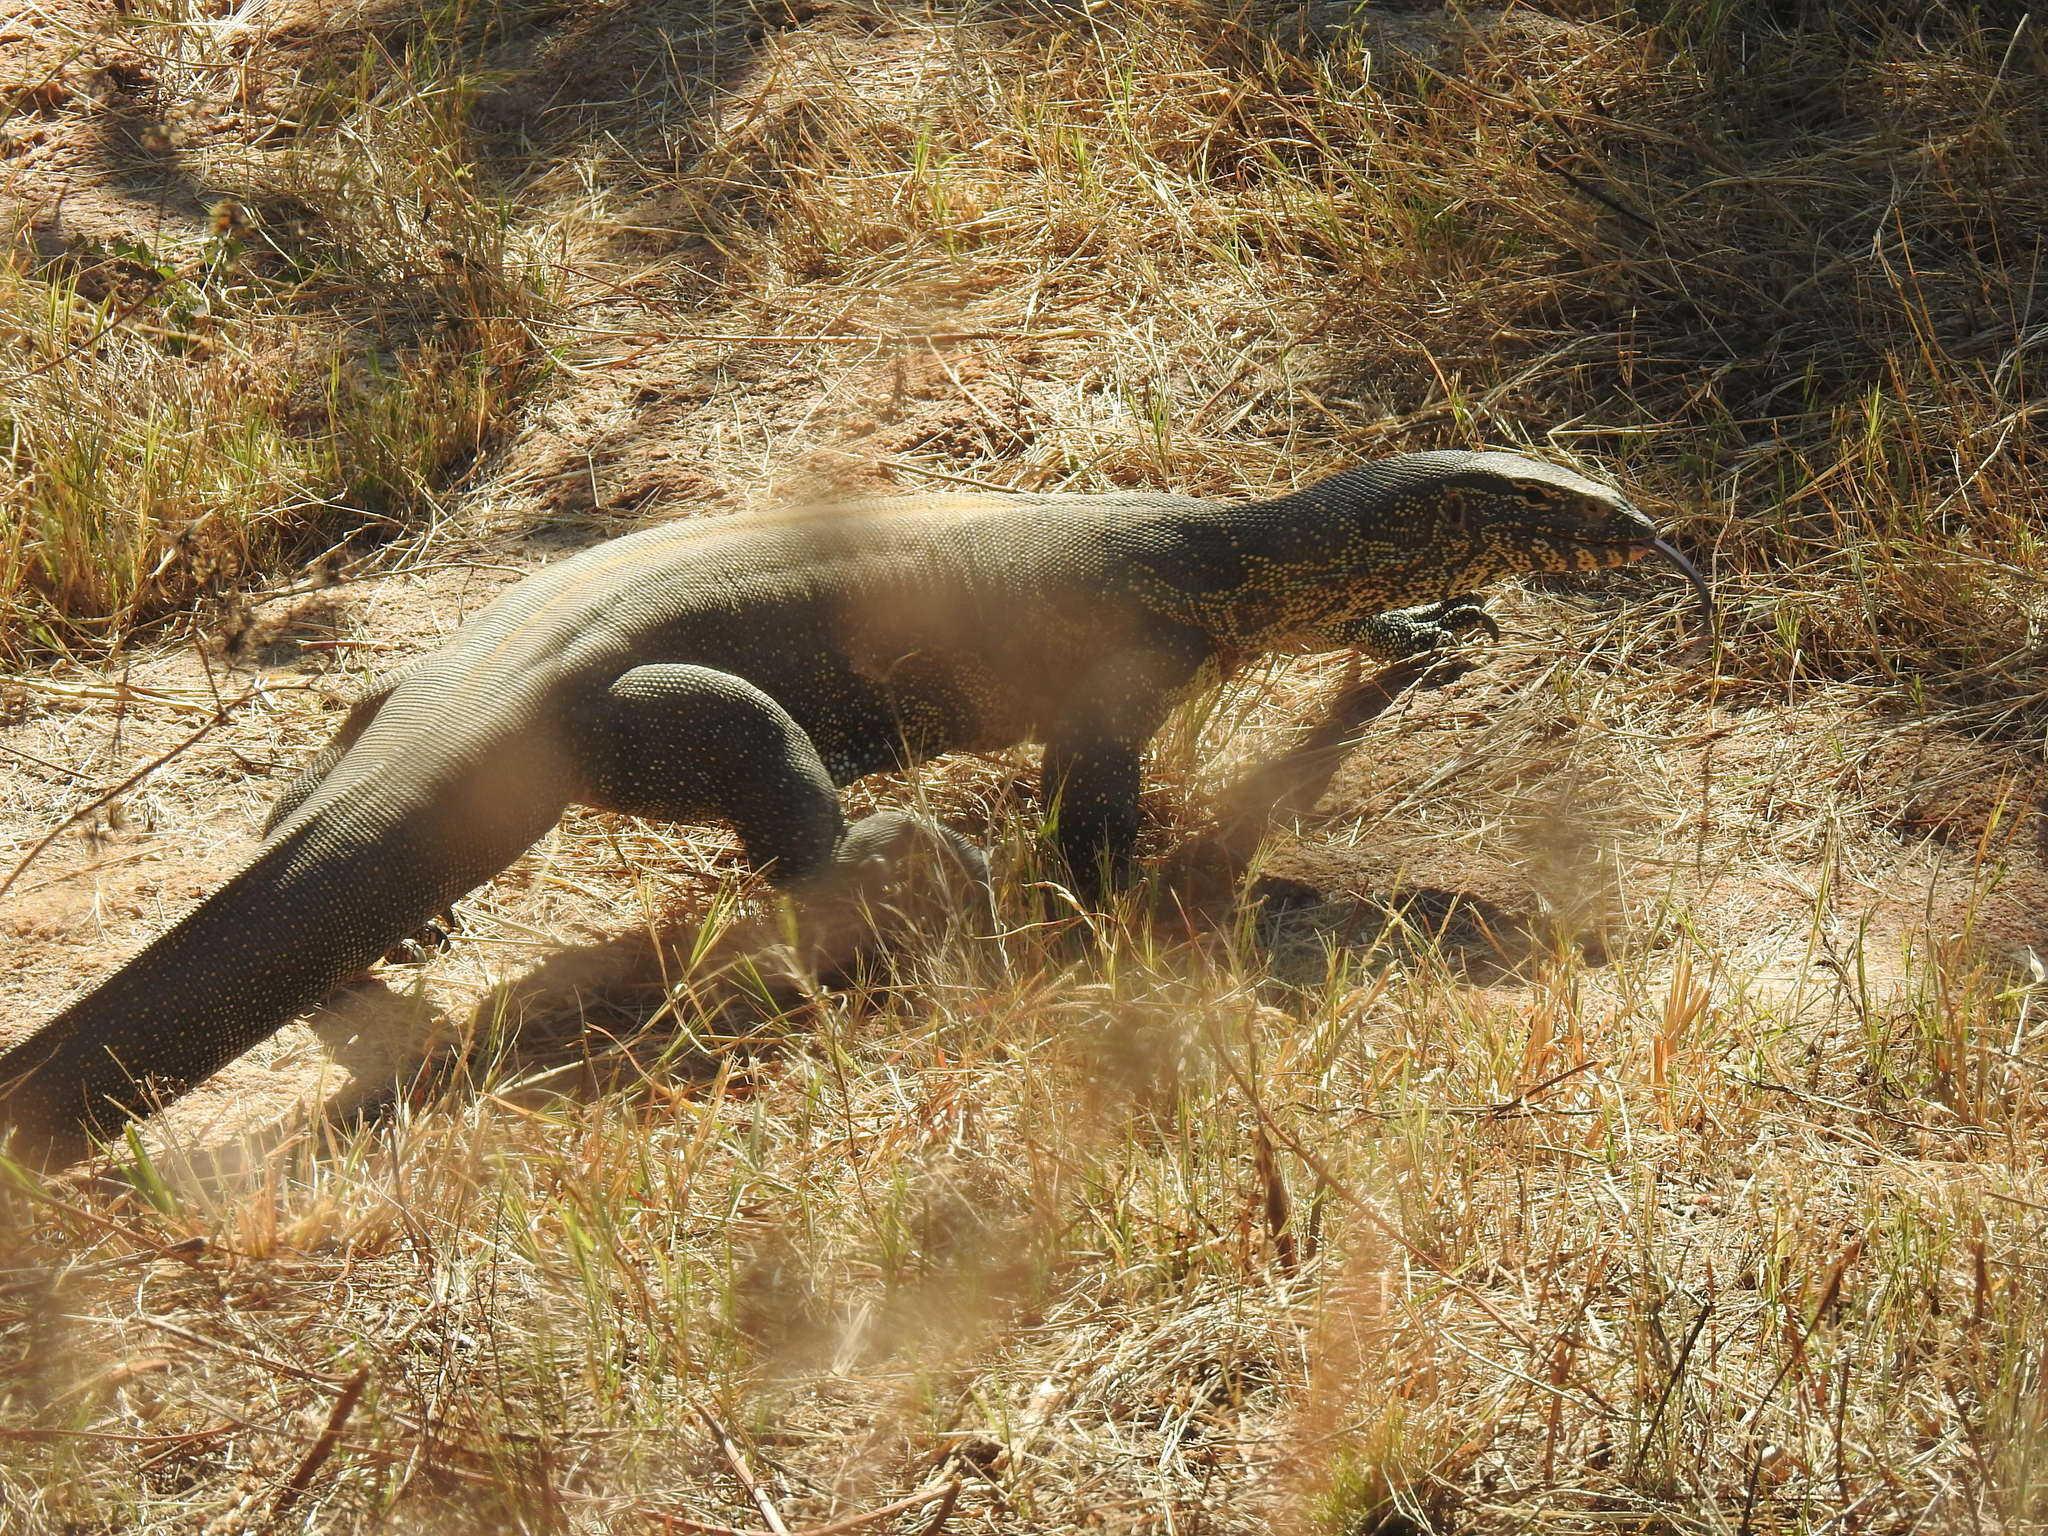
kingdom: Animalia
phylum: Chordata
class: Squamata
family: Varanidae
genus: Varanus
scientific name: Varanus niloticus
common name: Nile monitor
